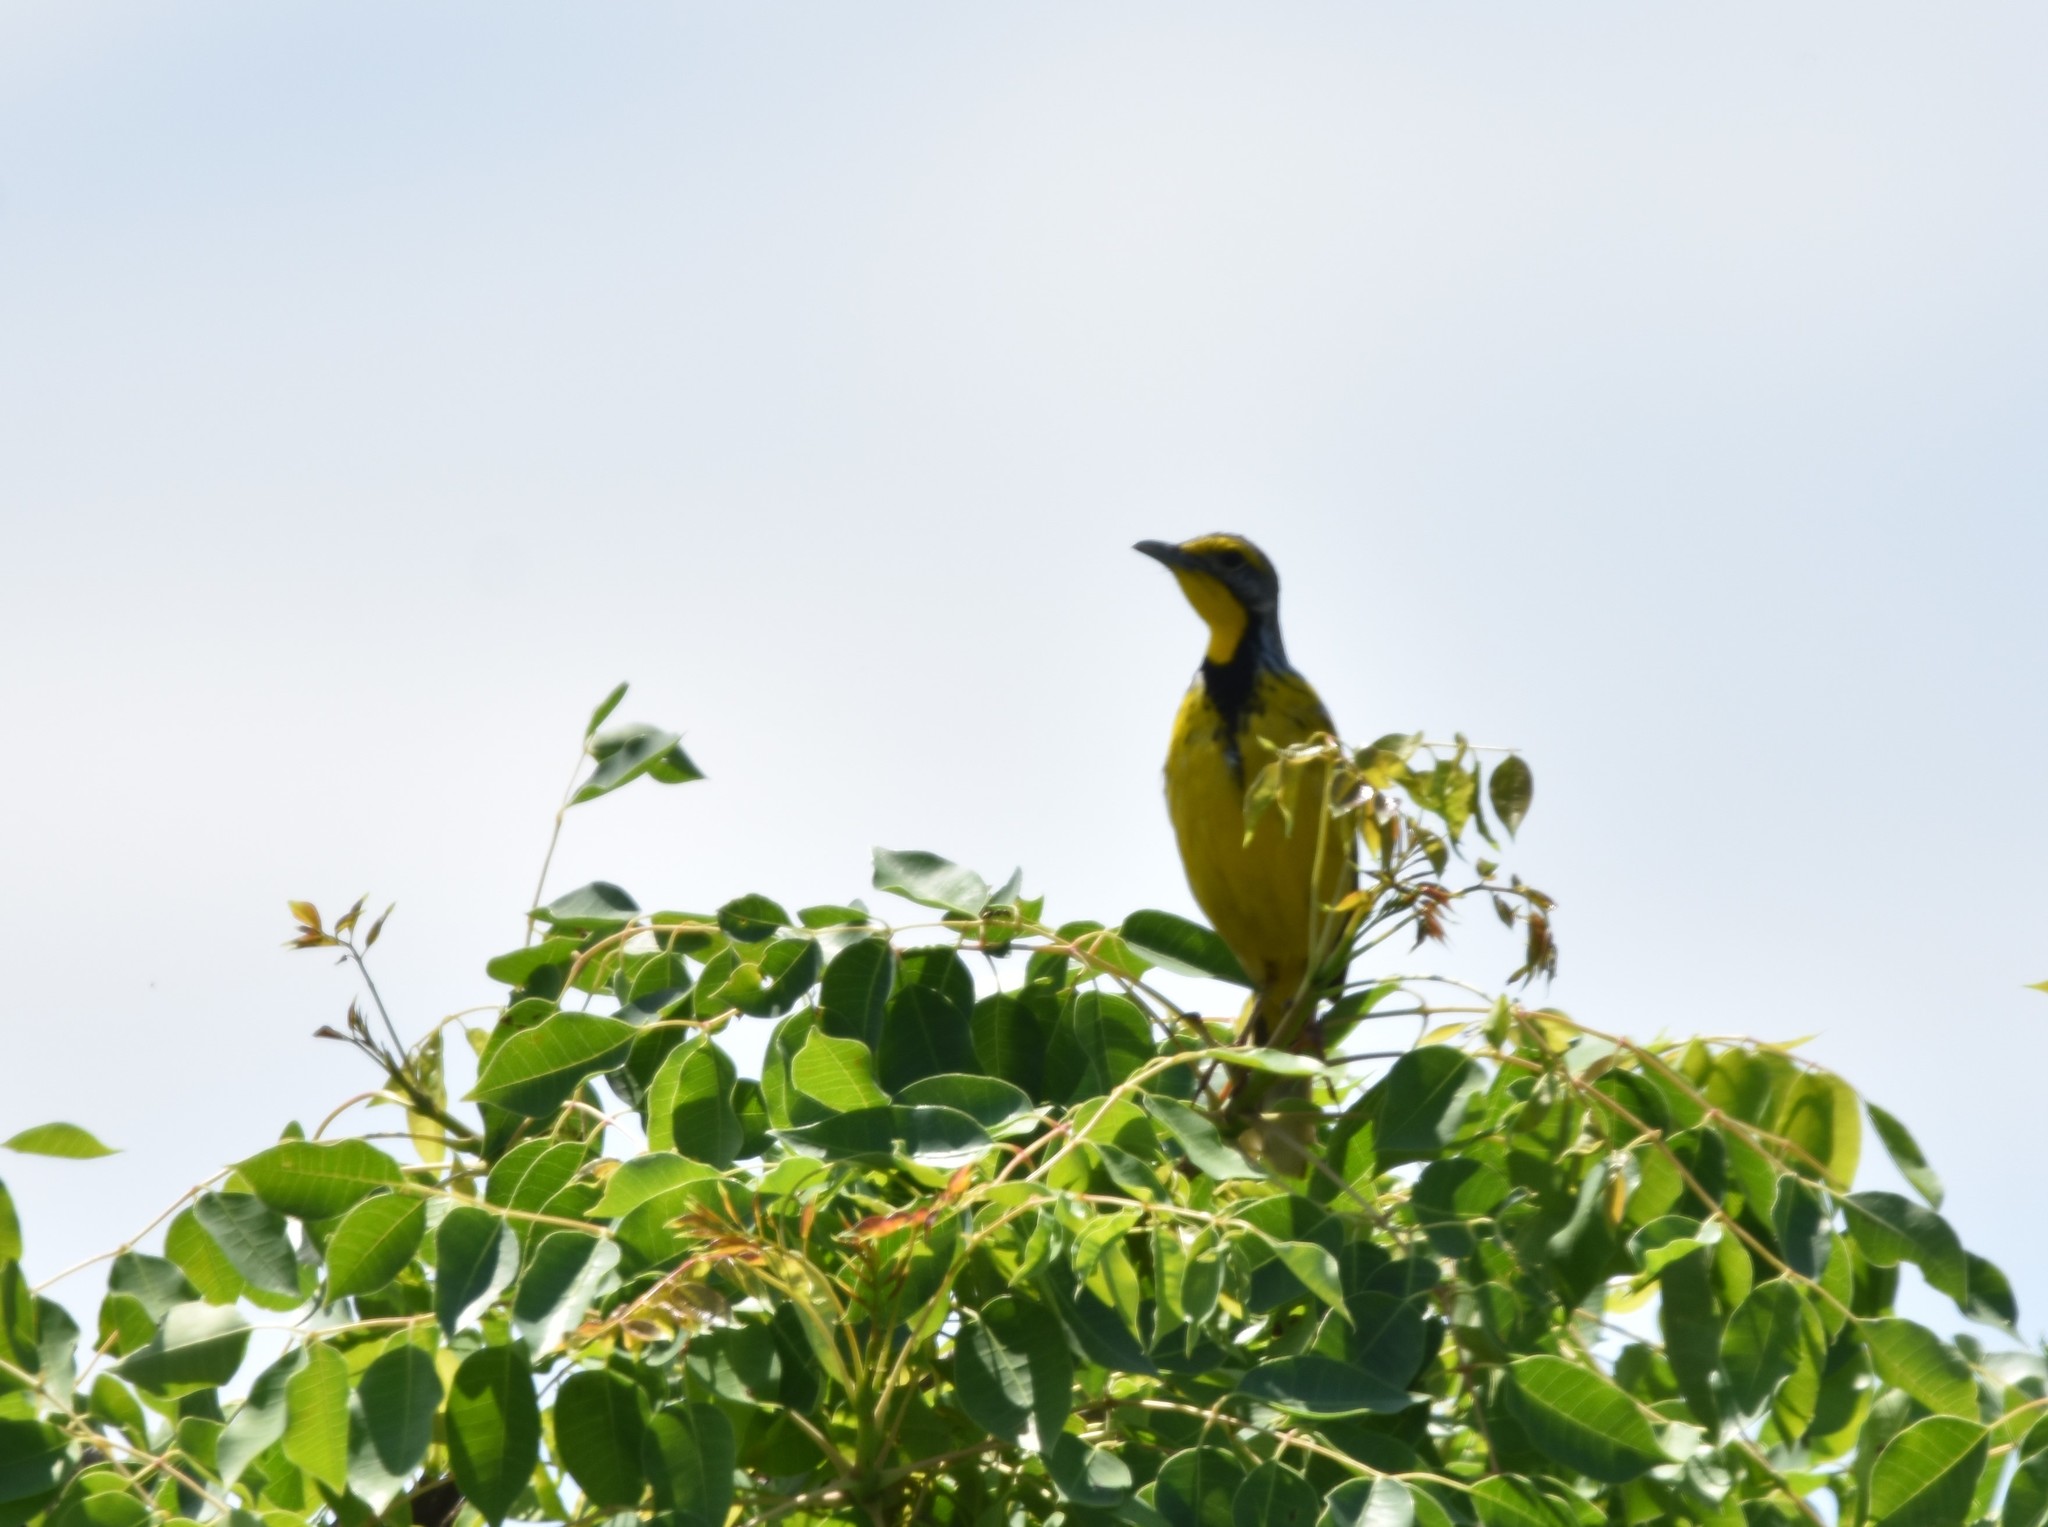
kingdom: Animalia
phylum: Chordata
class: Aves
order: Passeriformes
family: Motacillidae
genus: Macronyx
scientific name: Macronyx croceus
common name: Yellow-throated longclaw
